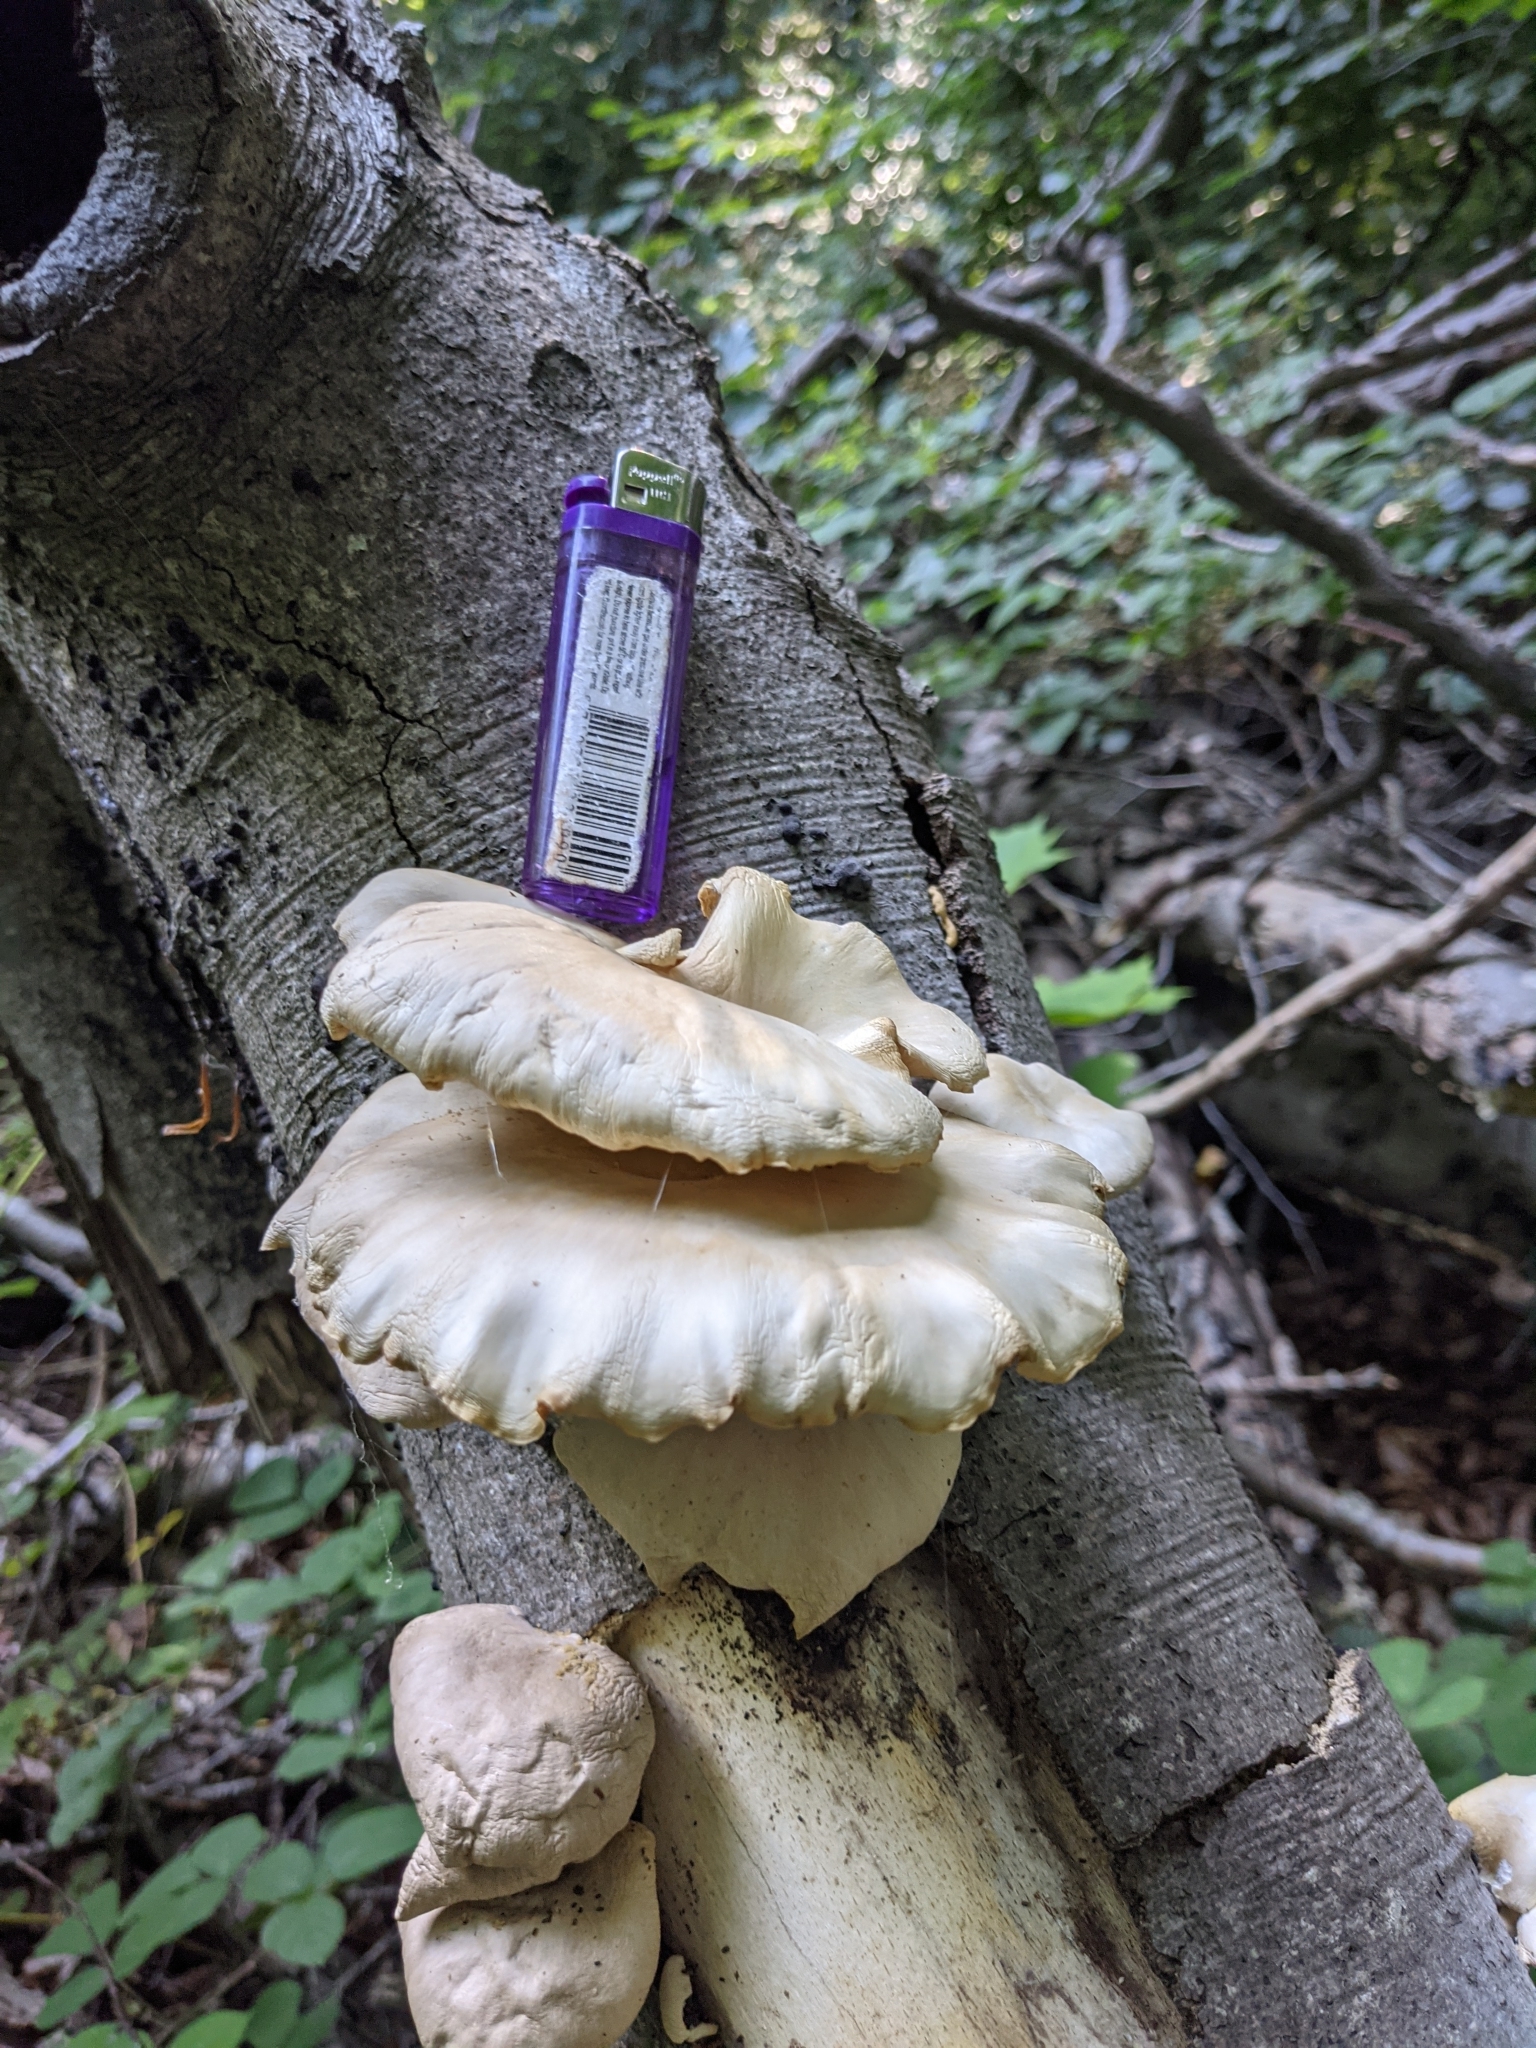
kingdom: Fungi
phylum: Basidiomycota
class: Agaricomycetes
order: Agaricales
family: Pleurotaceae
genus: Pleurotus
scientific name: Pleurotus pulmonarius
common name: Pale oyster
